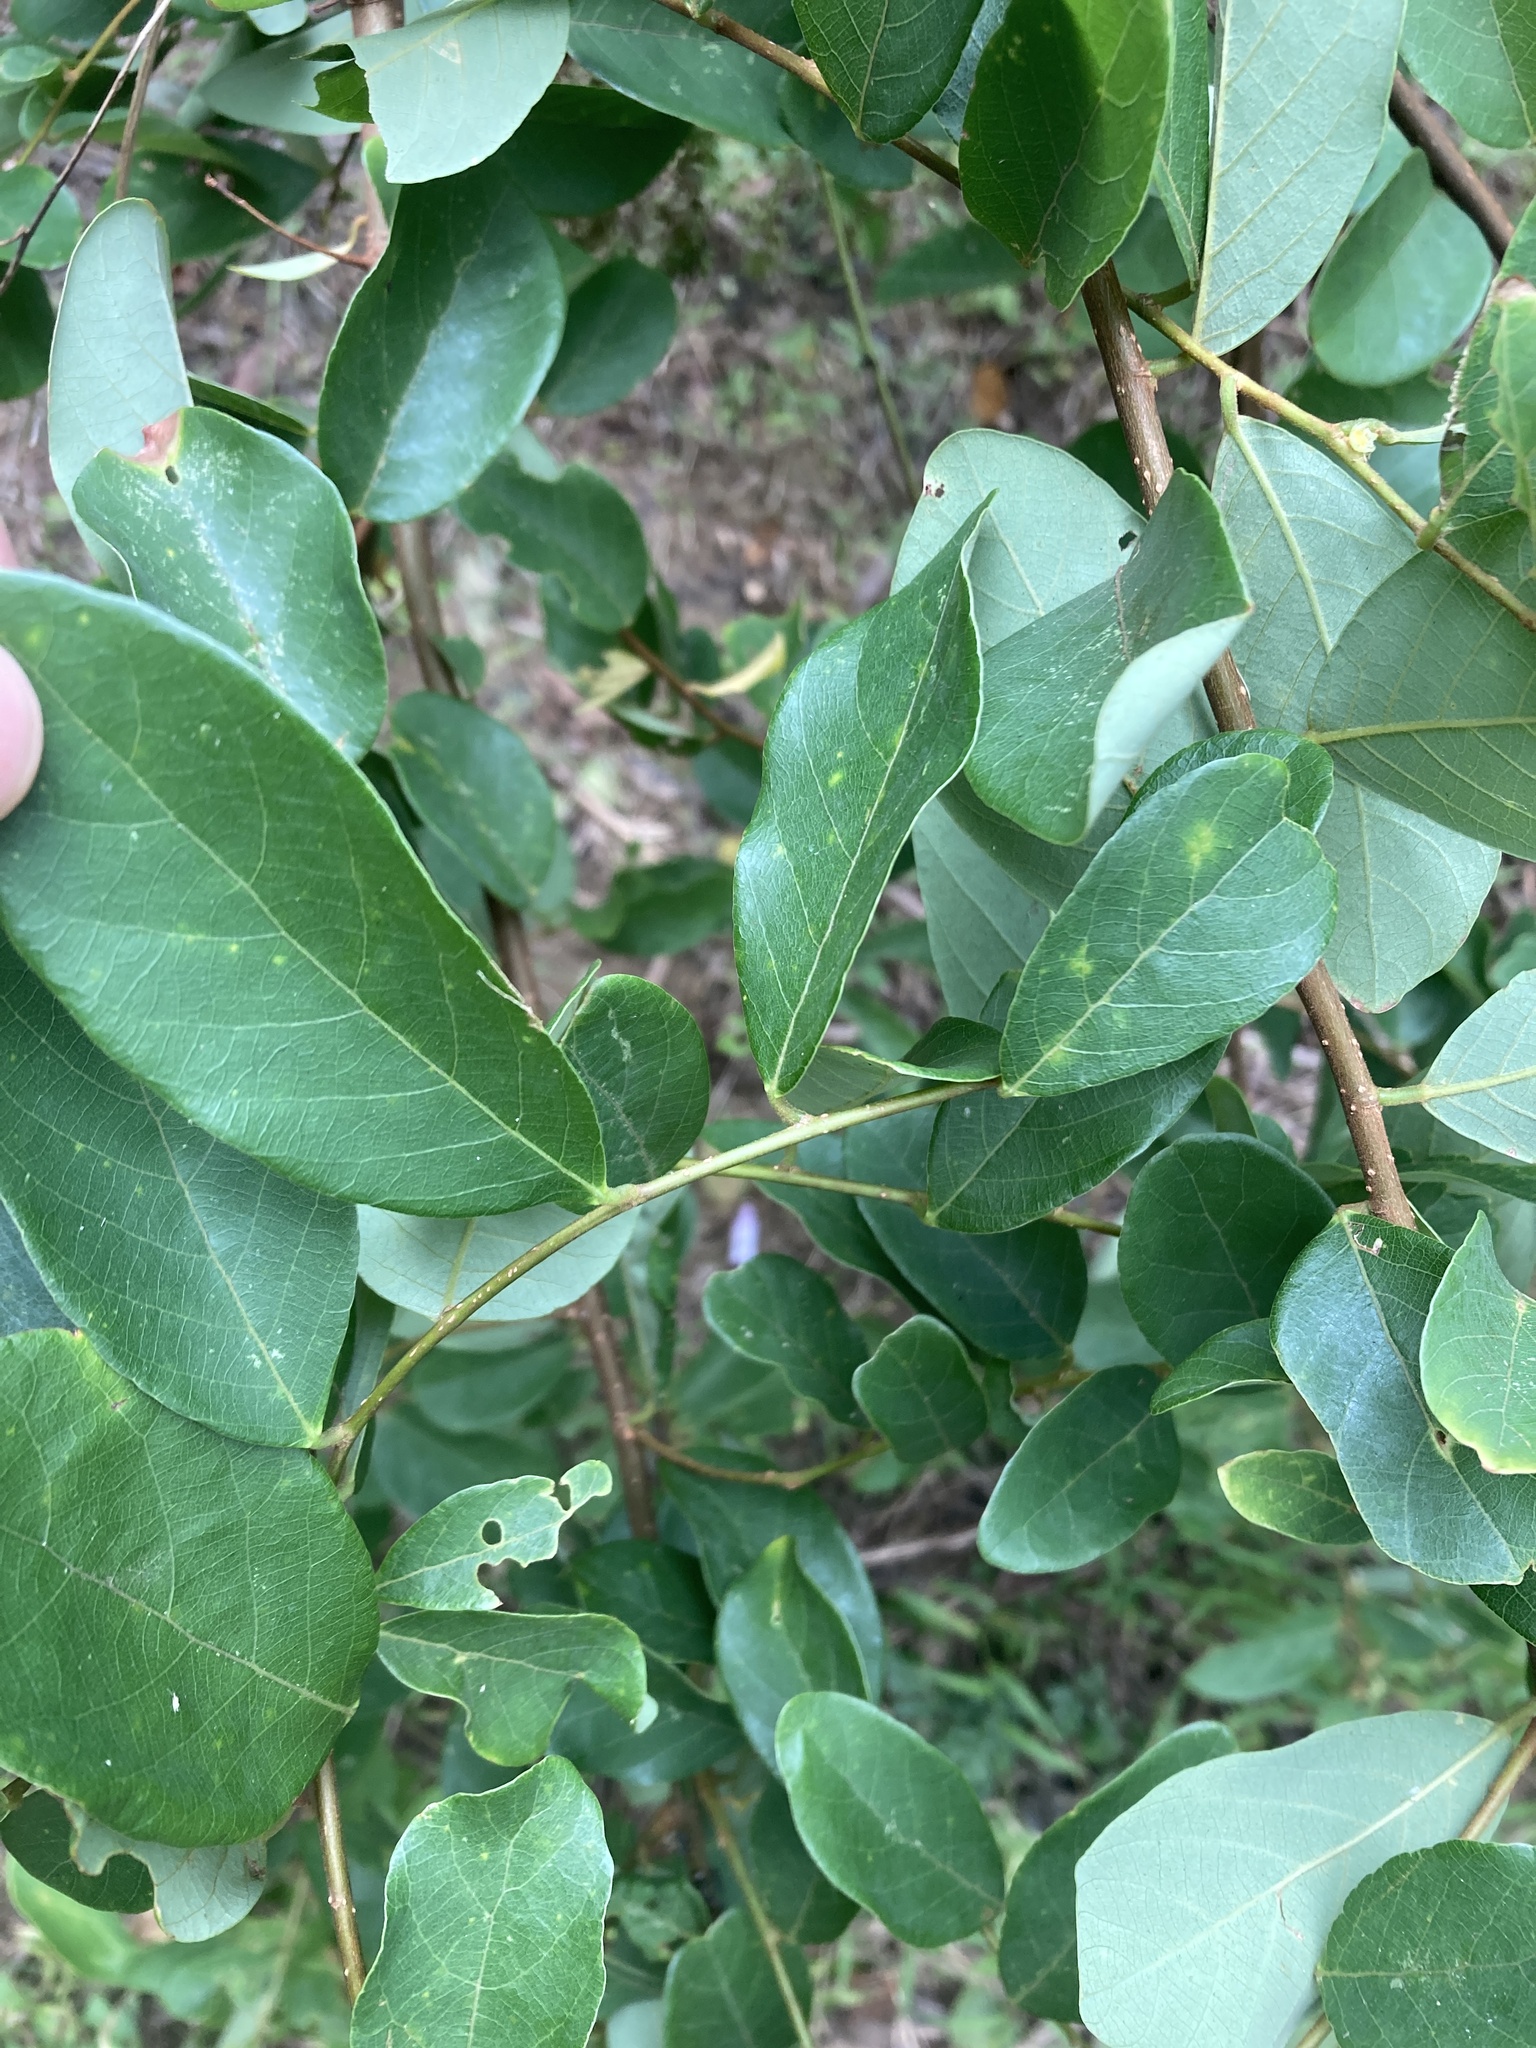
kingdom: Plantae
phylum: Tracheophyta
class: Magnoliopsida
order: Malpighiales
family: Phyllanthaceae
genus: Bridelia
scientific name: Bridelia tomentosa
